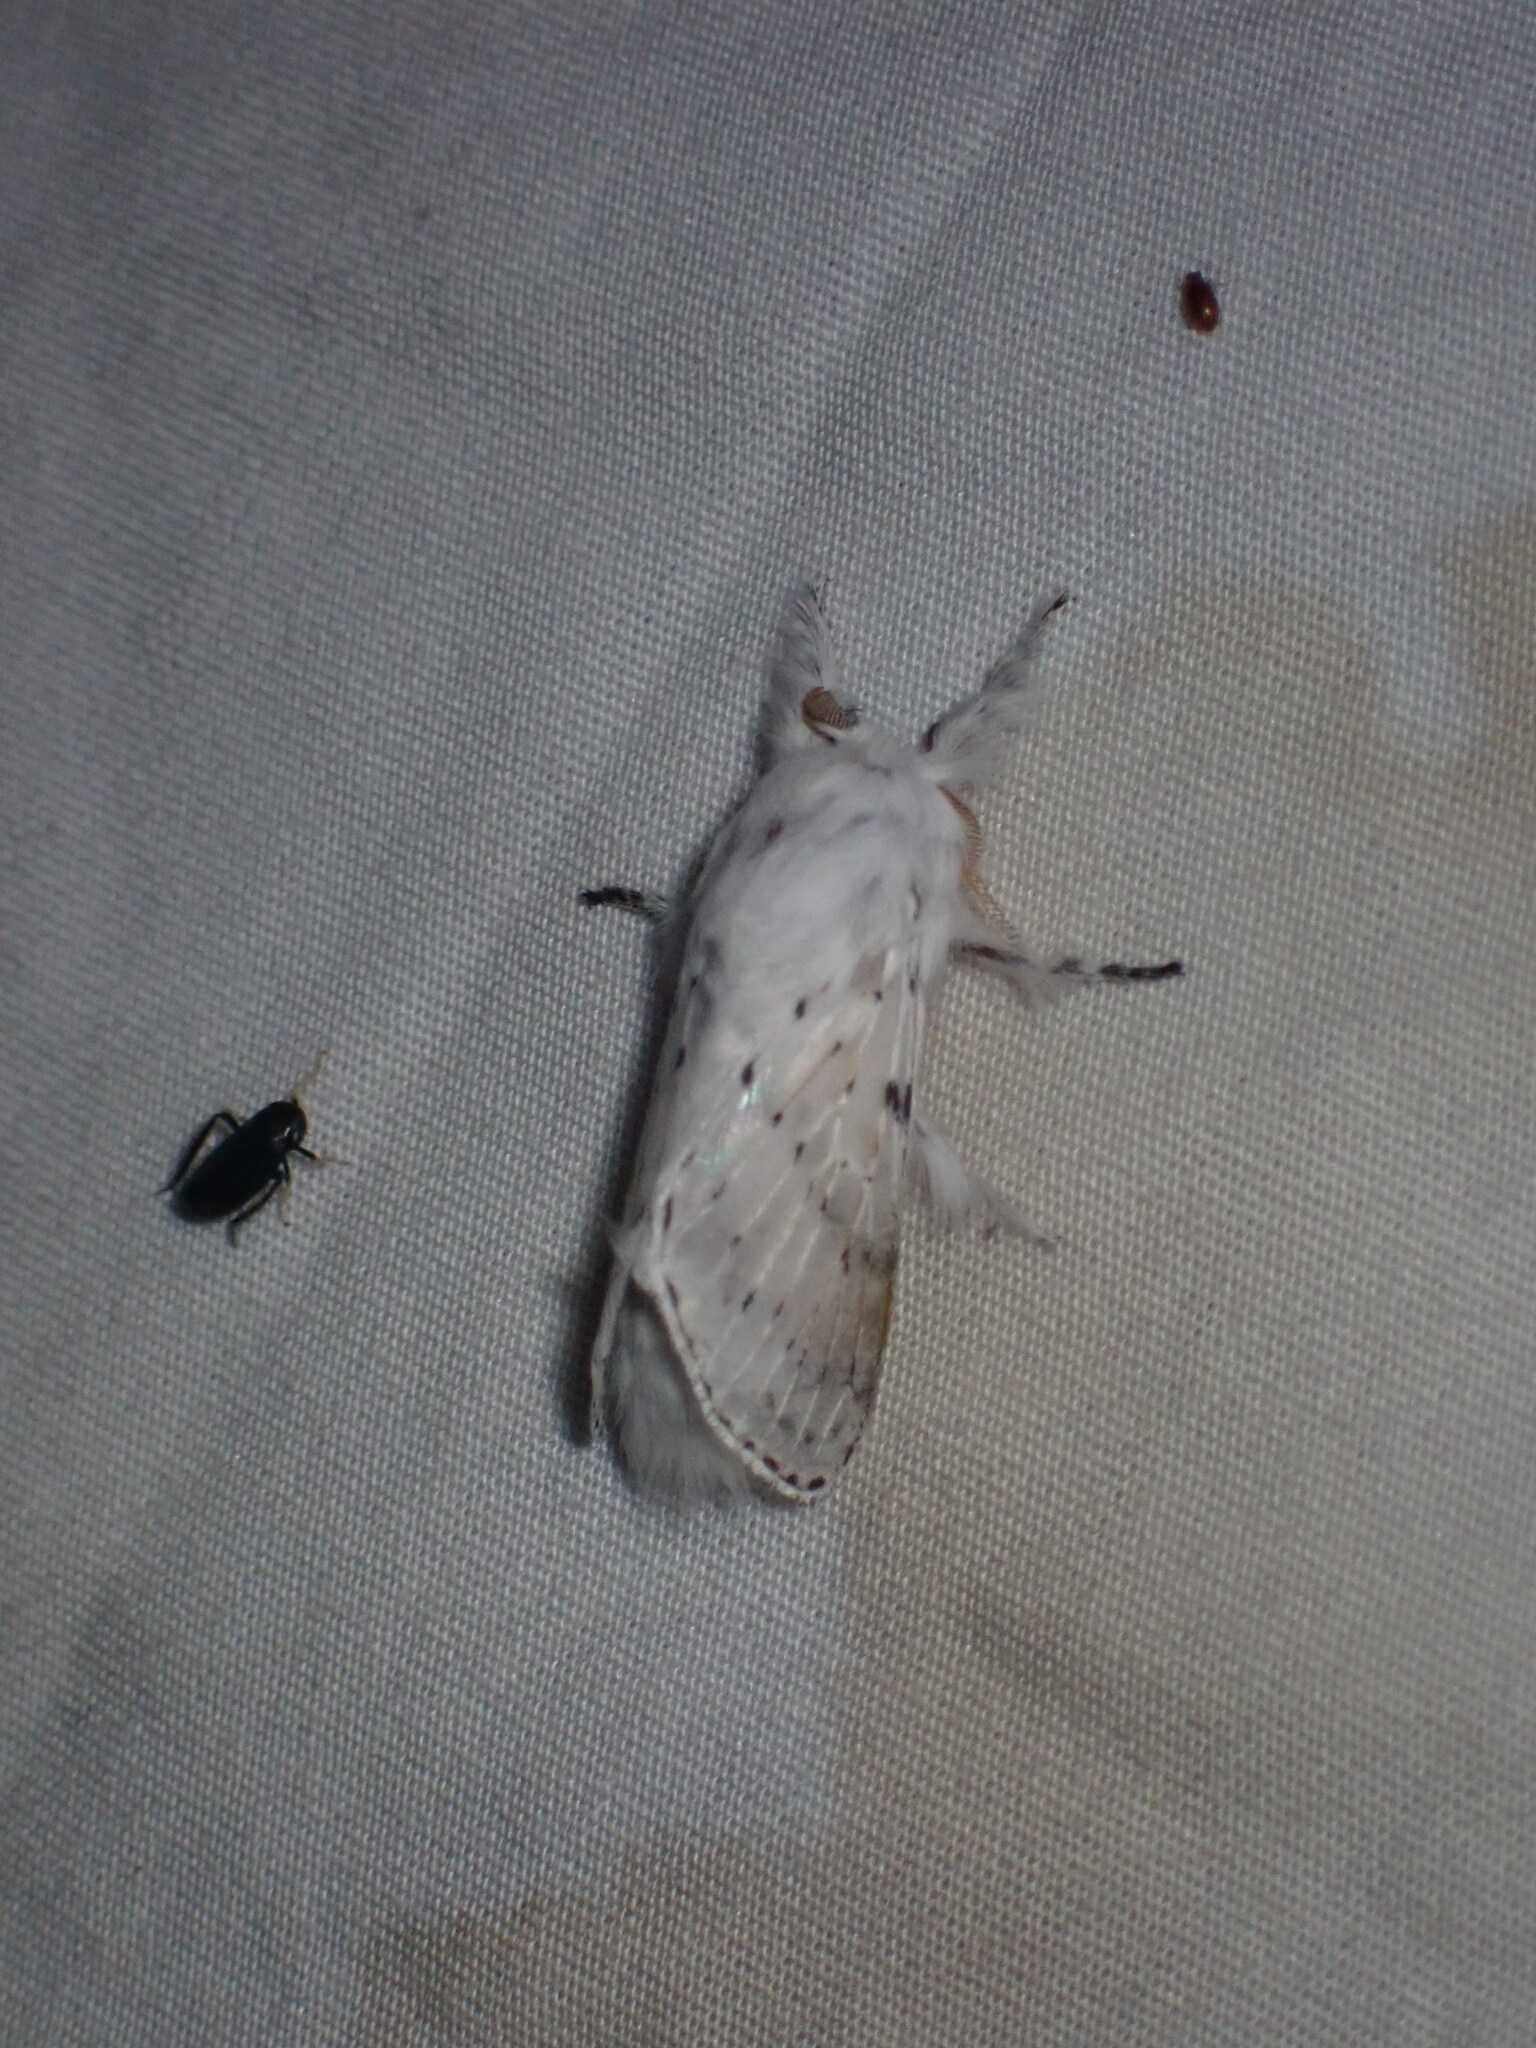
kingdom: Animalia
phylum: Arthropoda
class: Insecta
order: Lepidoptera
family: Lasiocampidae
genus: Artace
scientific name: Artace cribrarius
